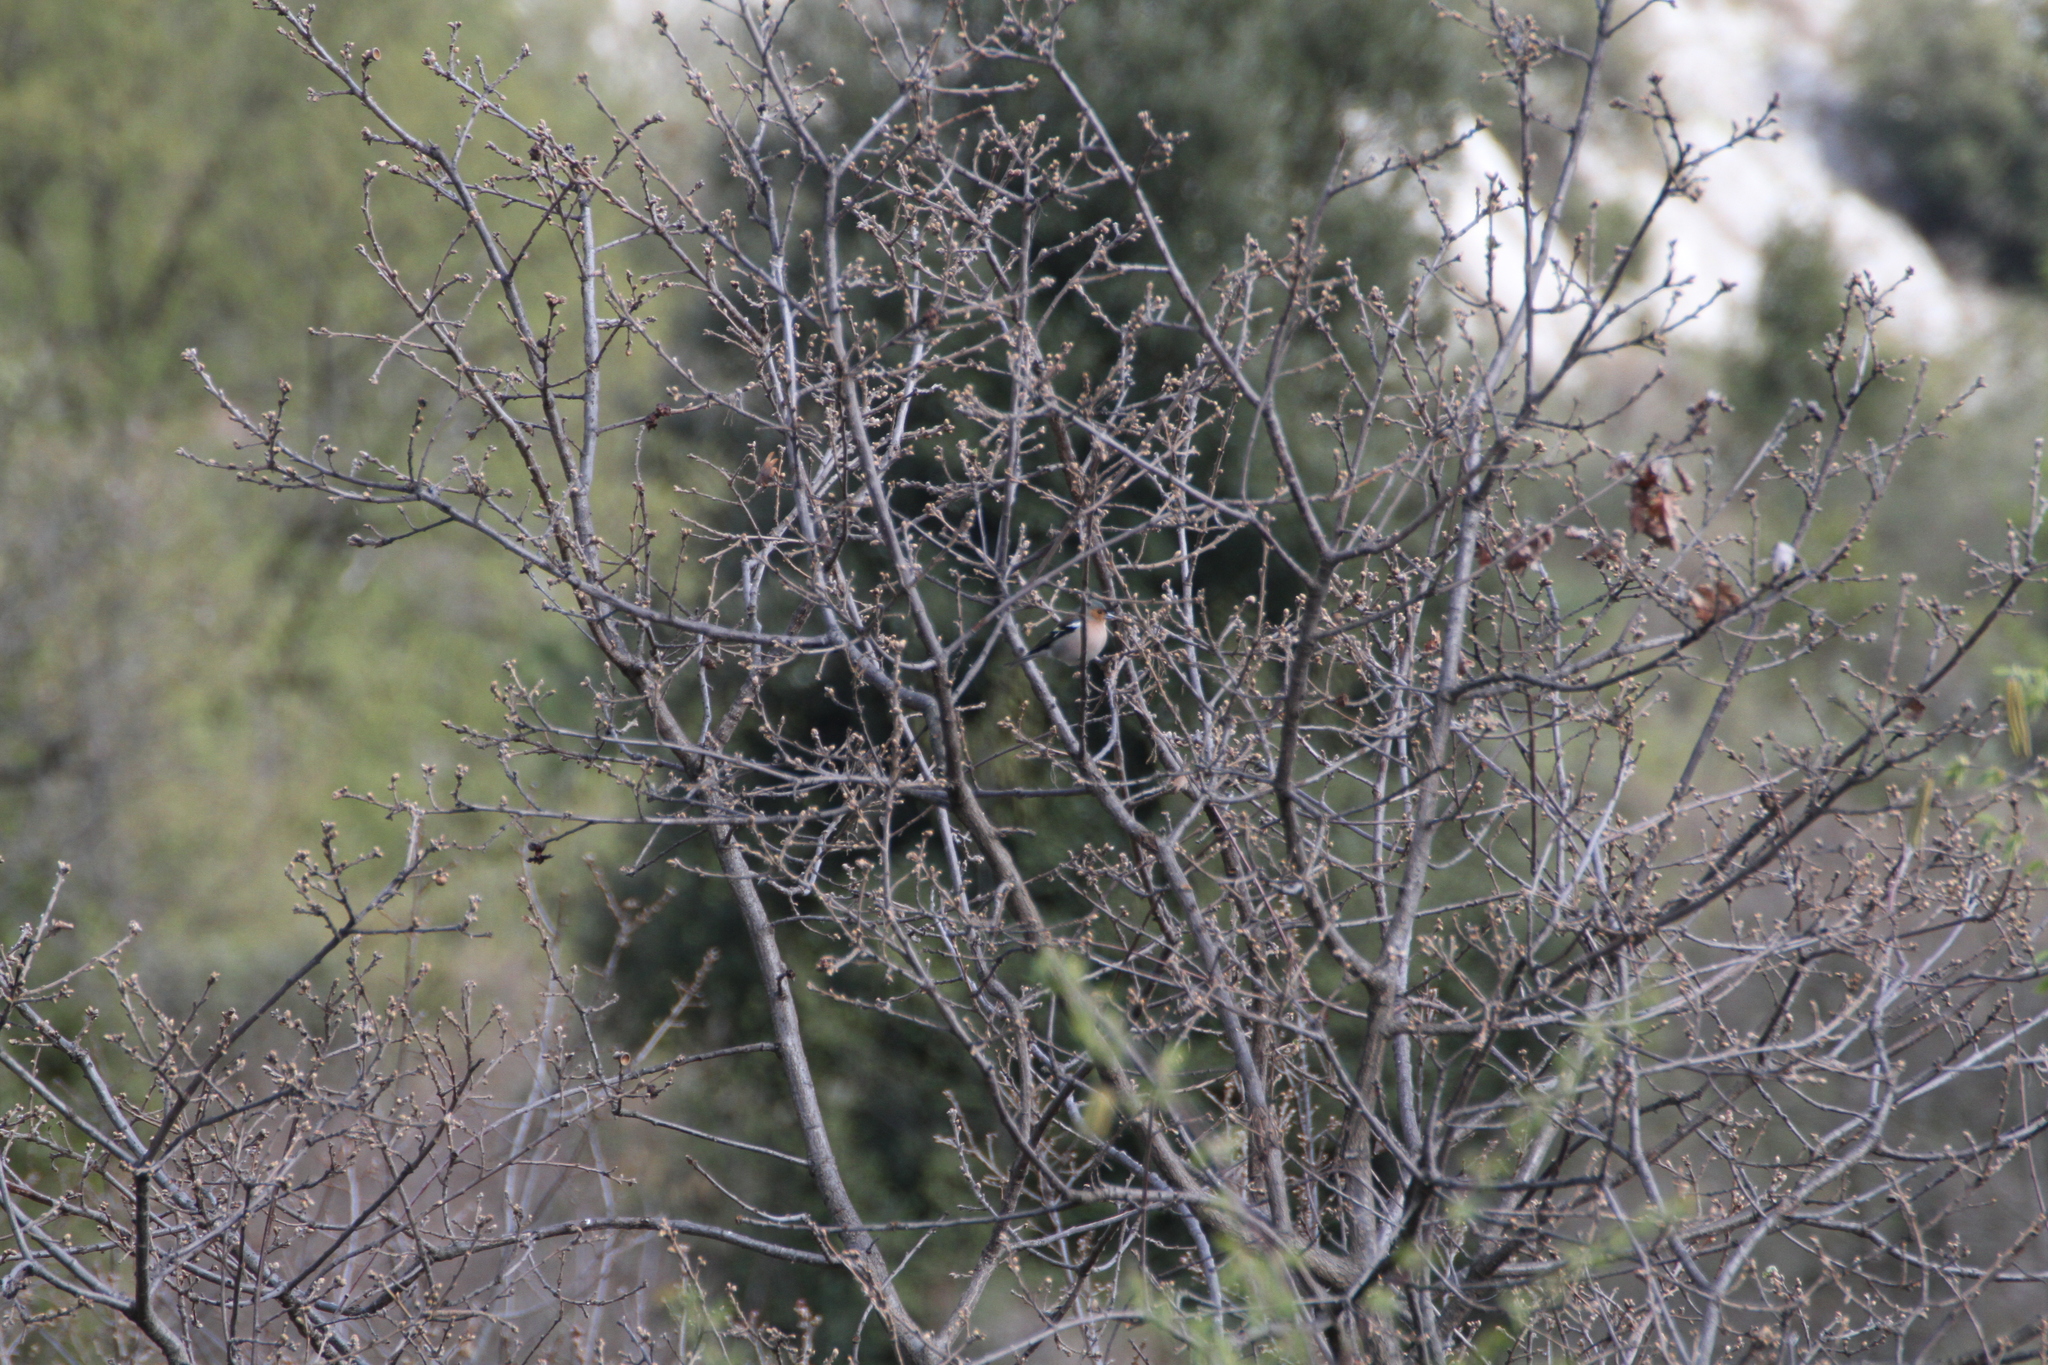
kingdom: Animalia
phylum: Chordata
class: Aves
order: Passeriformes
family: Fringillidae
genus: Fringilla
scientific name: Fringilla coelebs
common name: Common chaffinch
